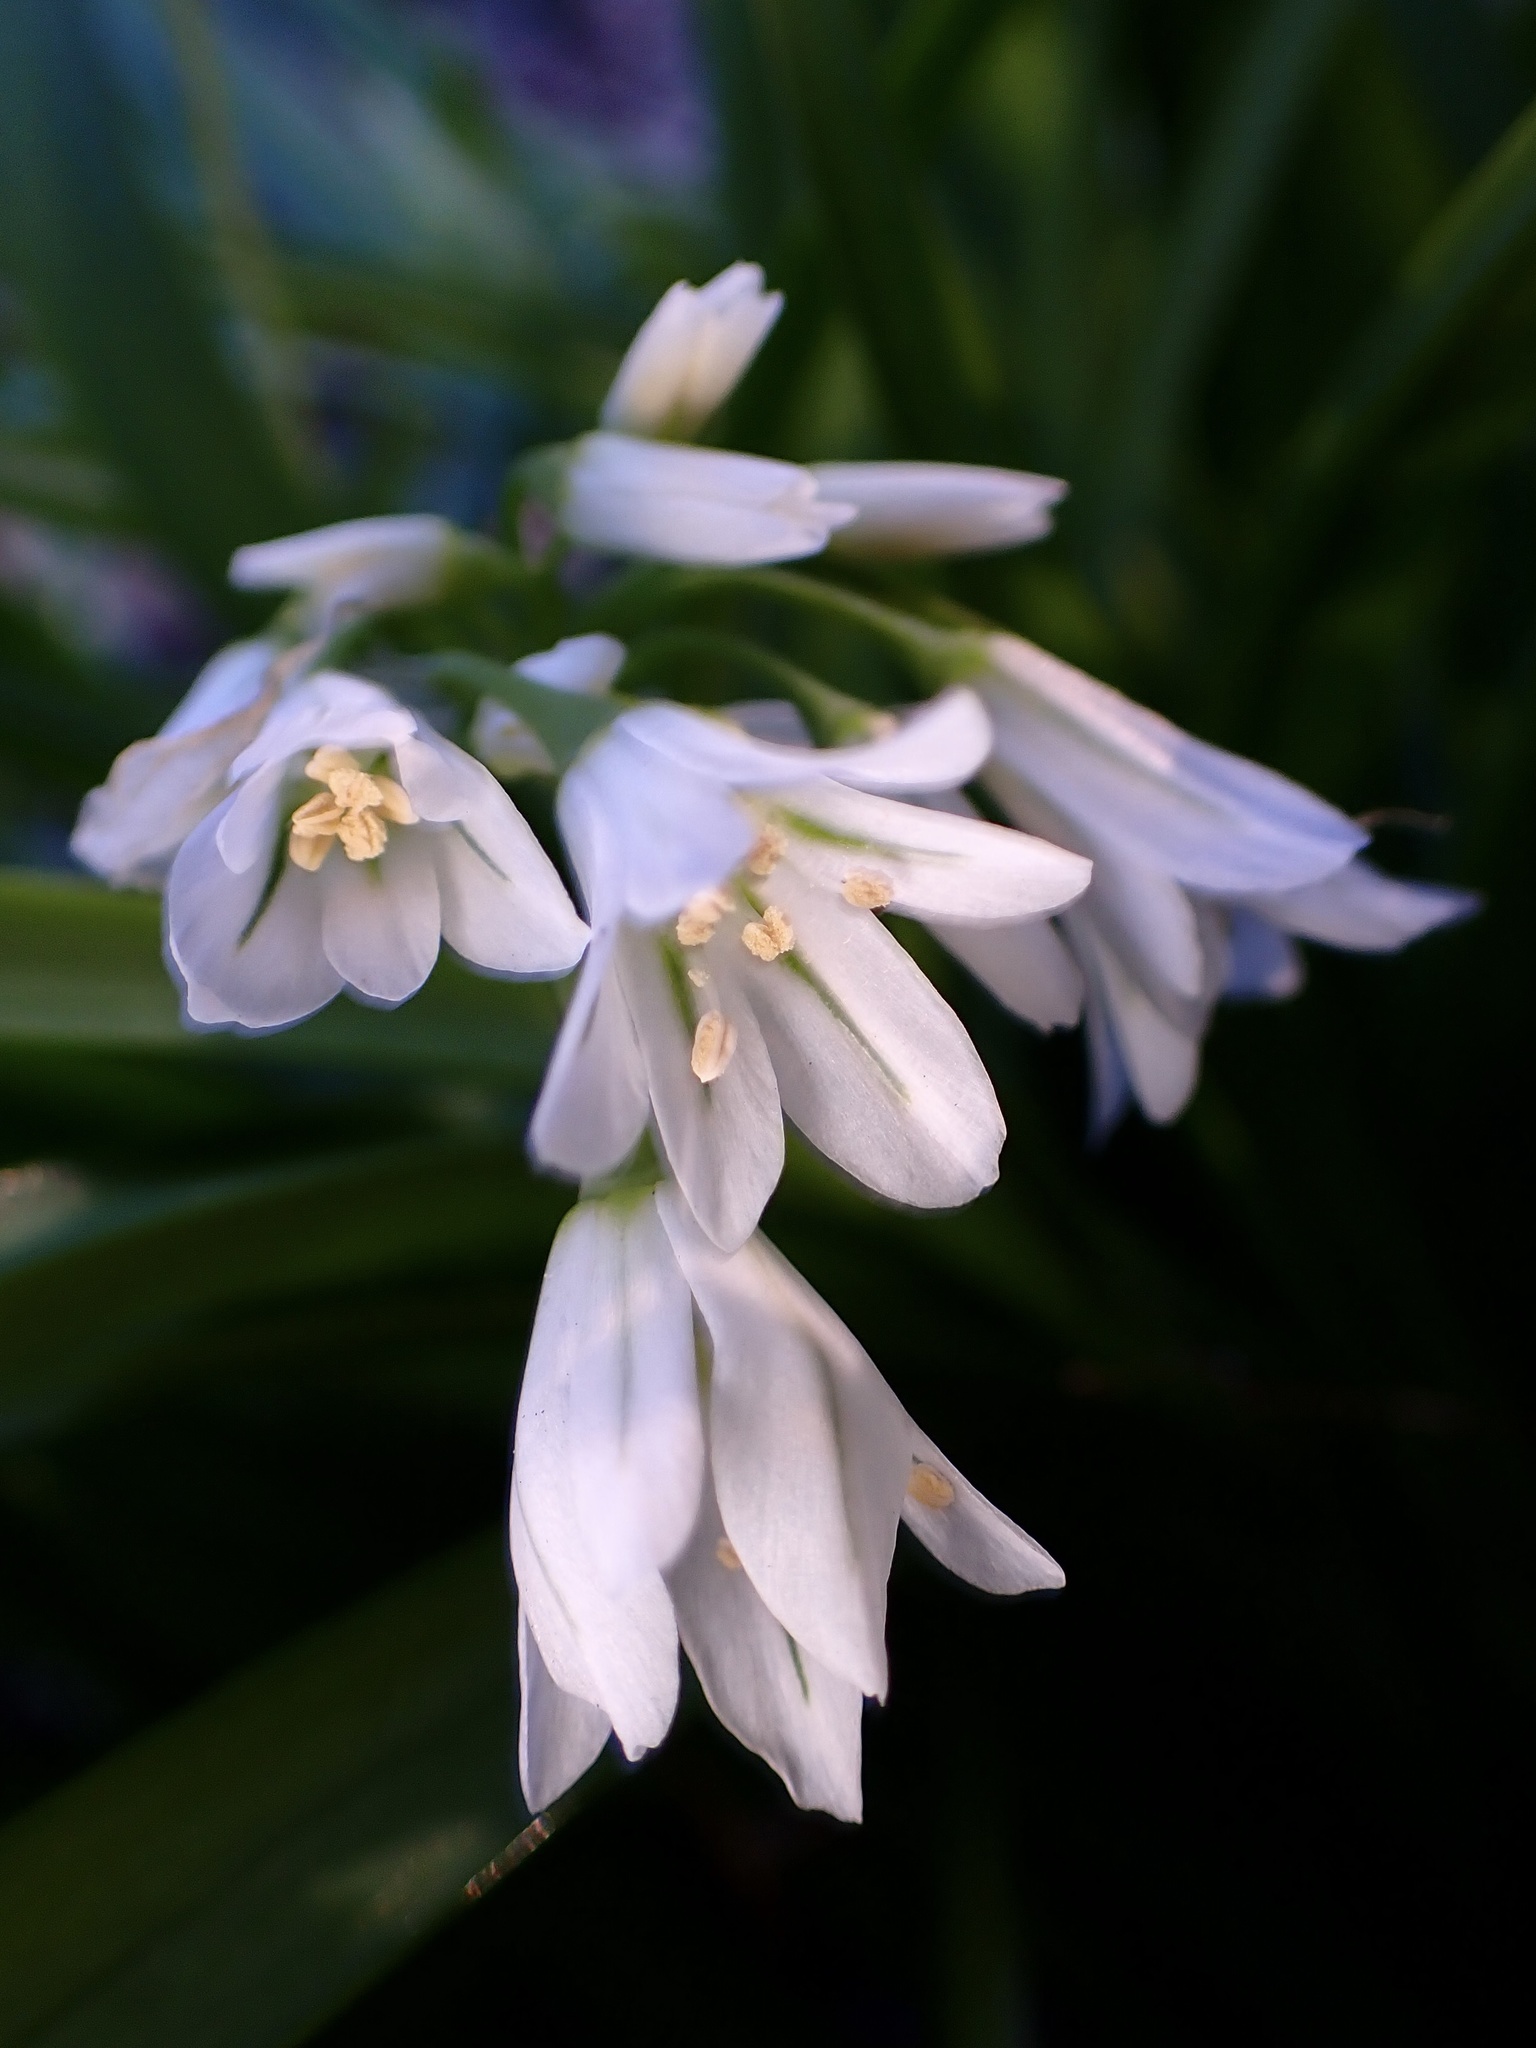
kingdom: Plantae
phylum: Tracheophyta
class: Liliopsida
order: Asparagales
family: Amaryllidaceae
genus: Allium
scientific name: Allium triquetrum
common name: Three-cornered garlic
